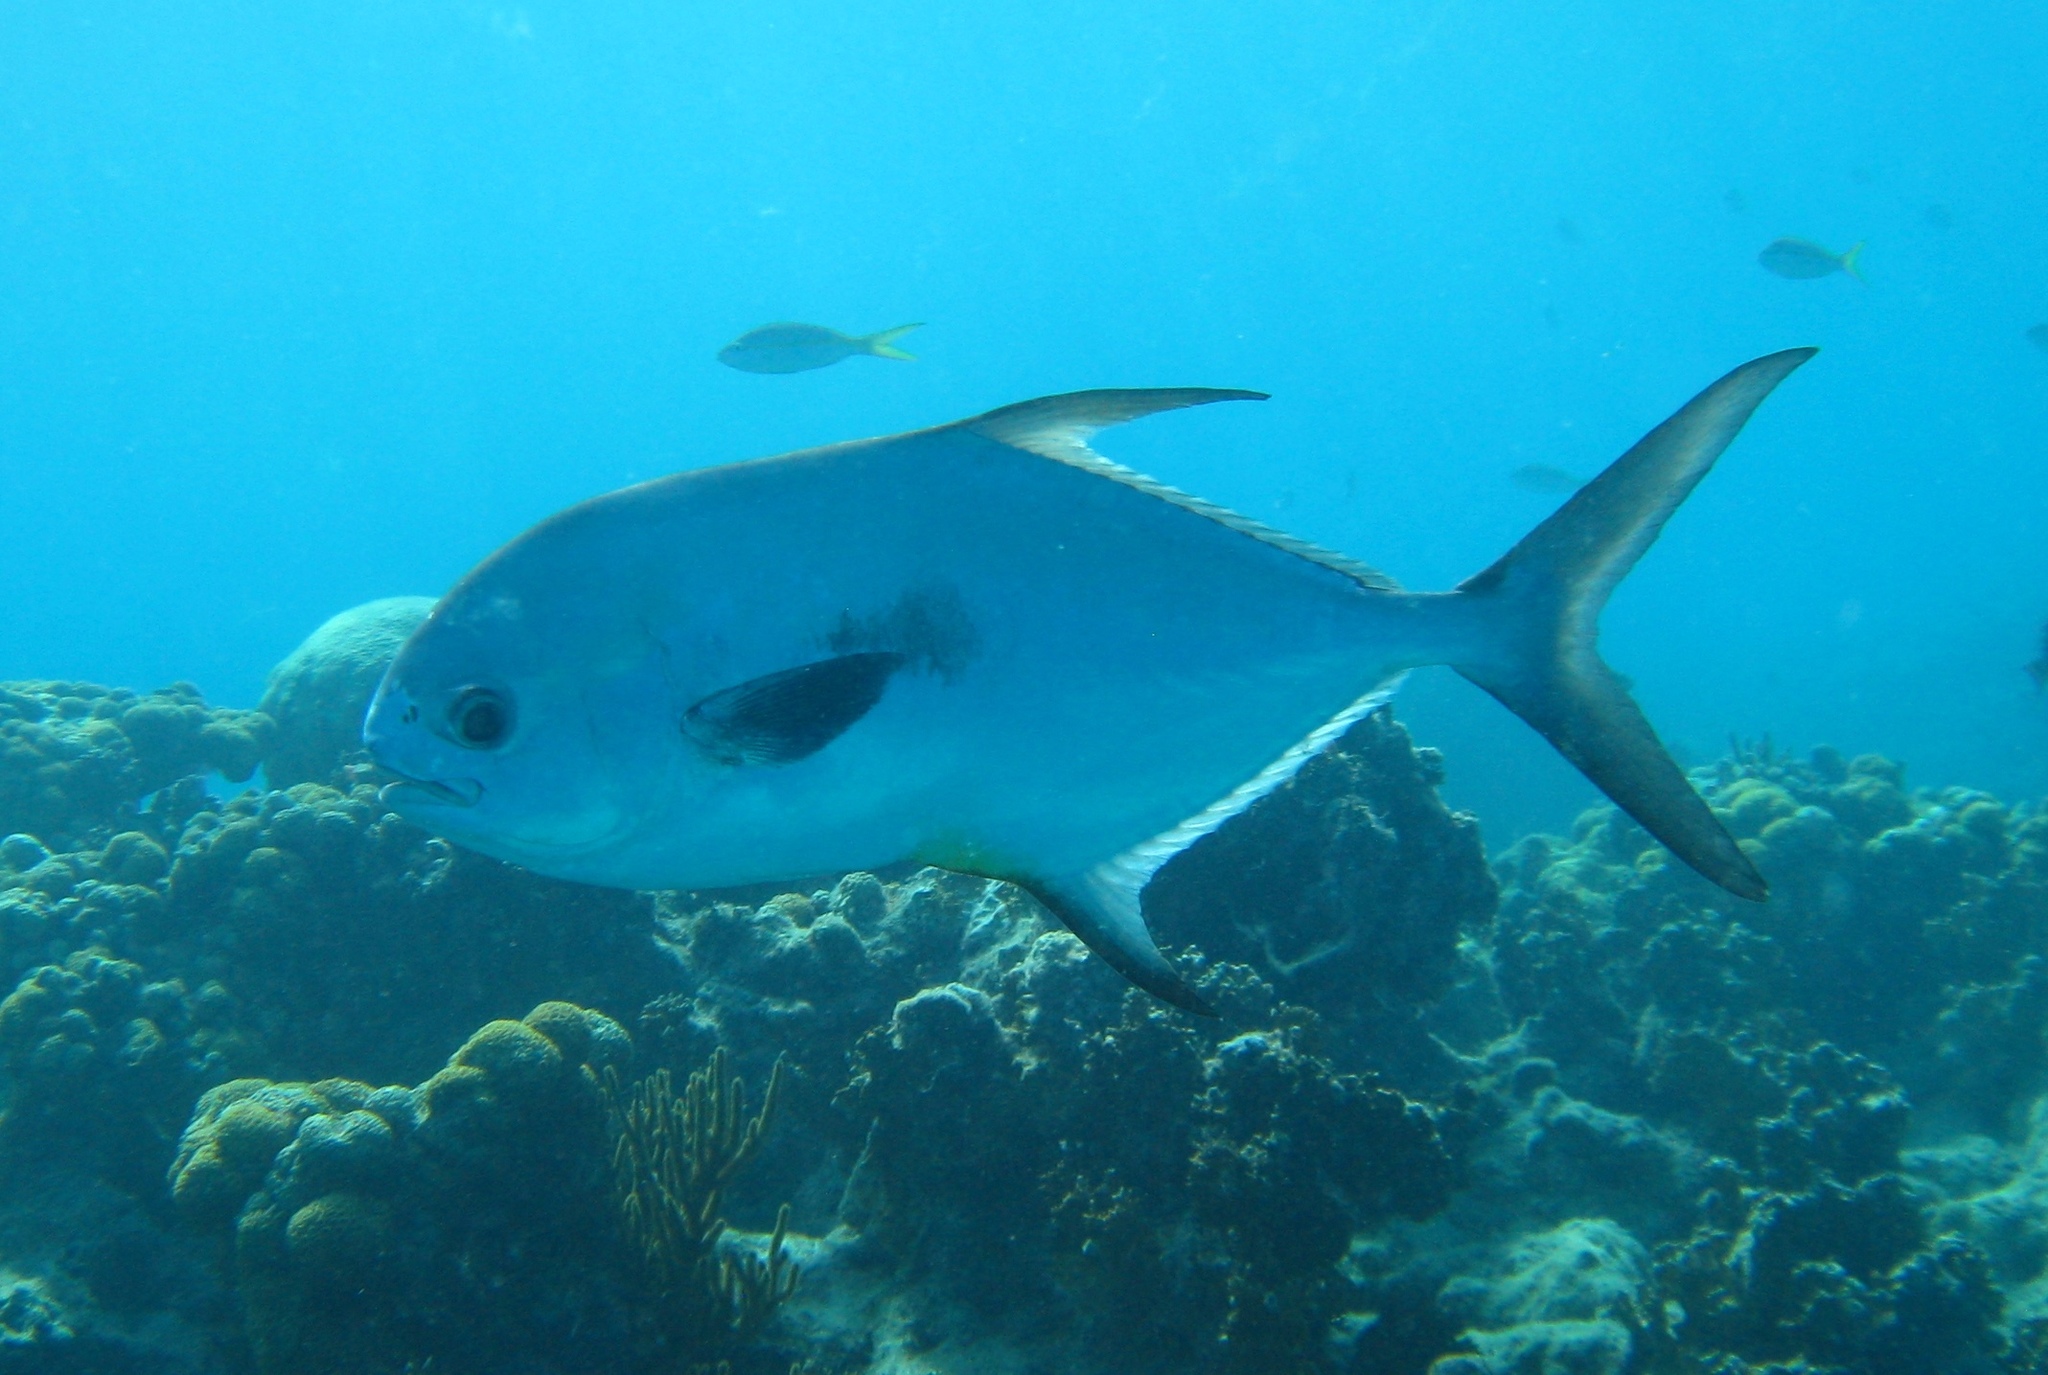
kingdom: Animalia
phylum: Chordata
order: Perciformes
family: Carangidae
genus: Trachinotus
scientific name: Trachinotus falcatus
